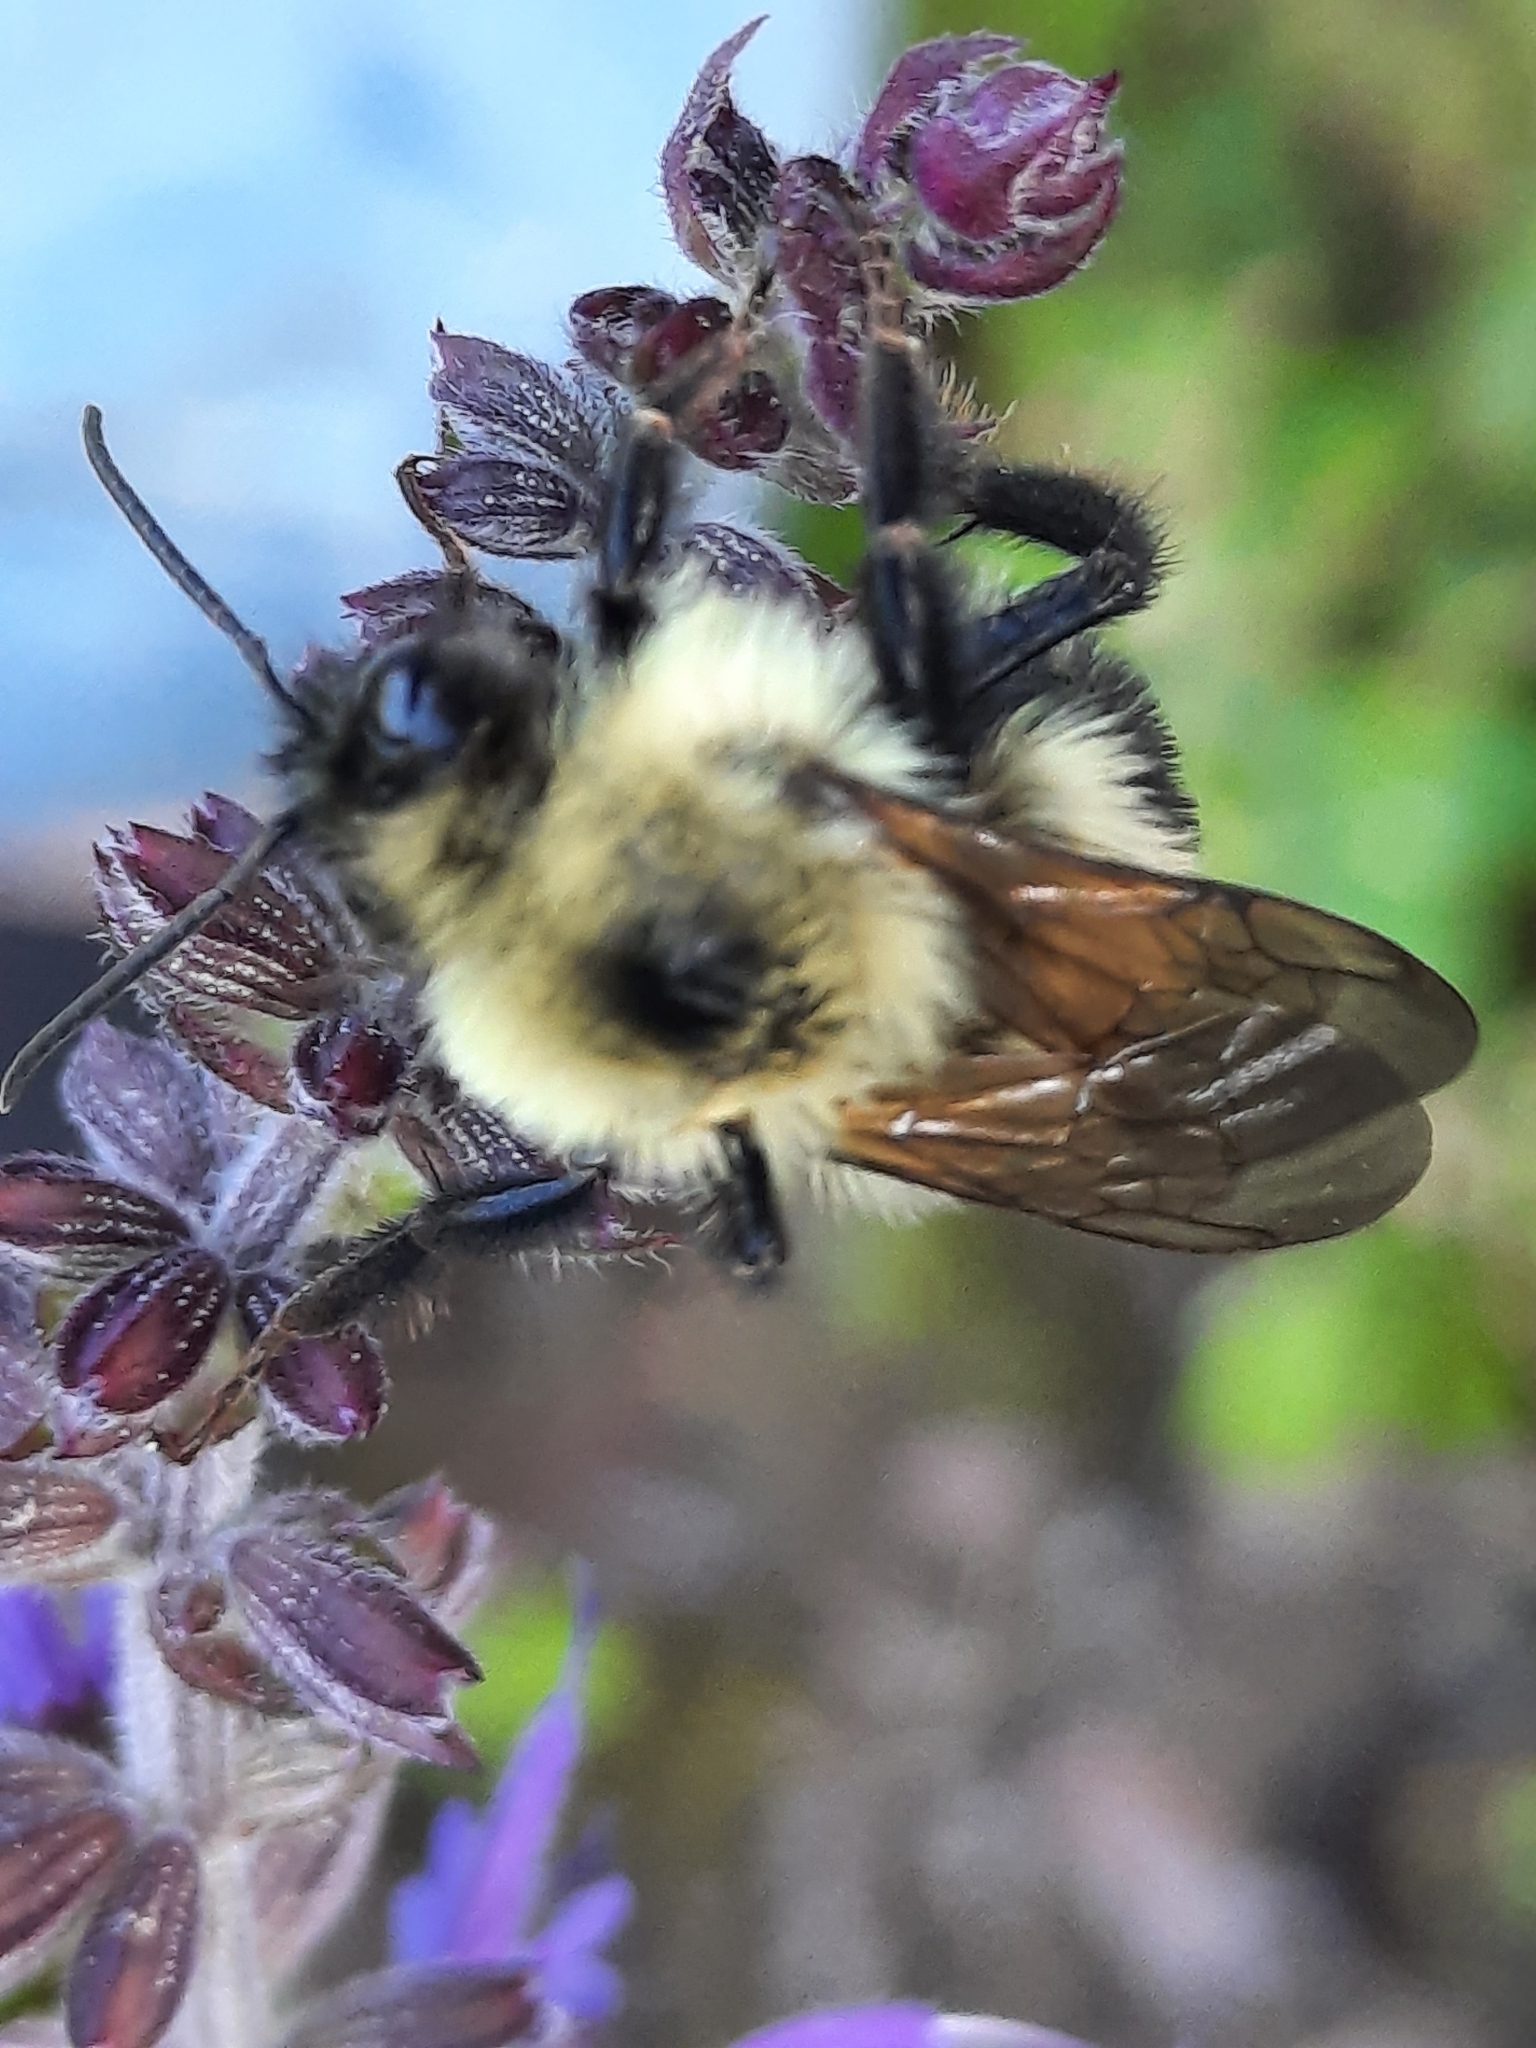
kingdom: Animalia
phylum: Arthropoda
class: Insecta
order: Hymenoptera
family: Apidae
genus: Bombus
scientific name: Bombus bimaculatus
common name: Two-spotted bumble bee
